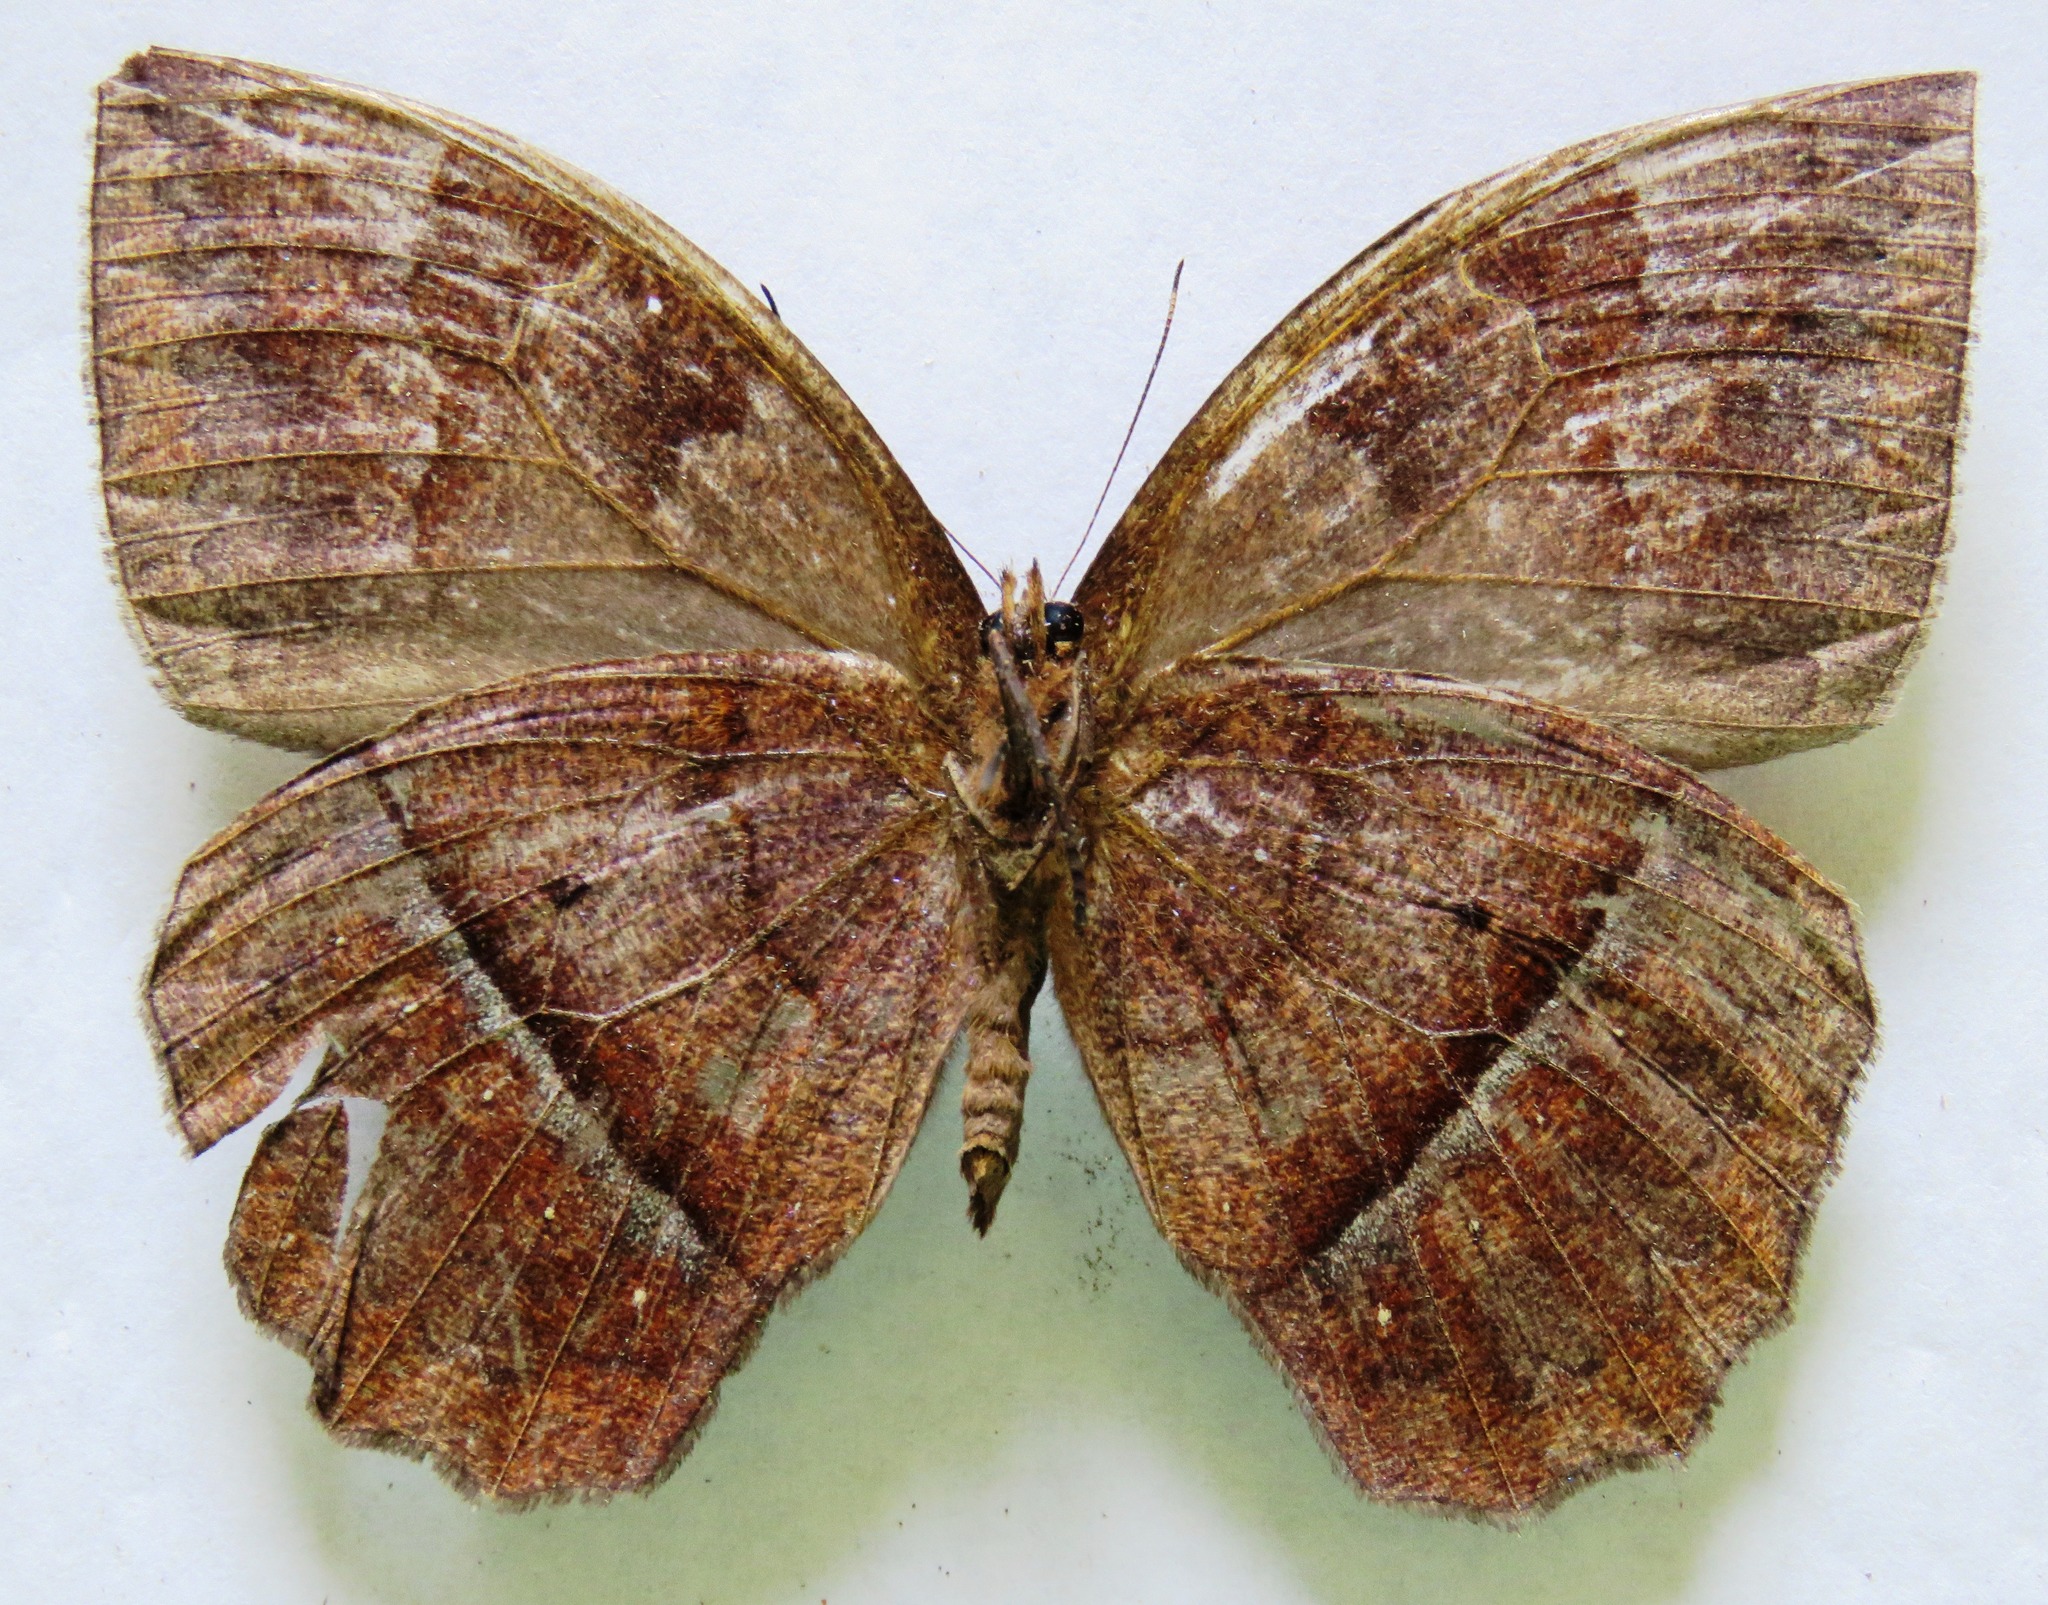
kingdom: Animalia
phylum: Arthropoda
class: Insecta
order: Lepidoptera
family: Nymphalidae
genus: Taygetis
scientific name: Taygetis mermeria
